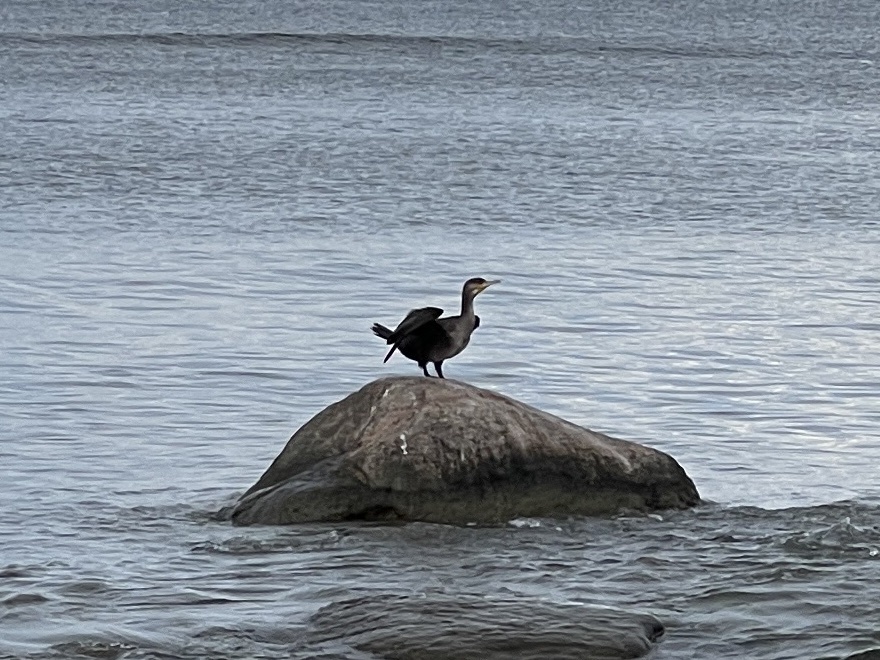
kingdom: Animalia
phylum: Chordata
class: Aves
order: Suliformes
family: Phalacrocoracidae
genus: Phalacrocorax
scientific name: Phalacrocorax carbo
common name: Great cormorant
